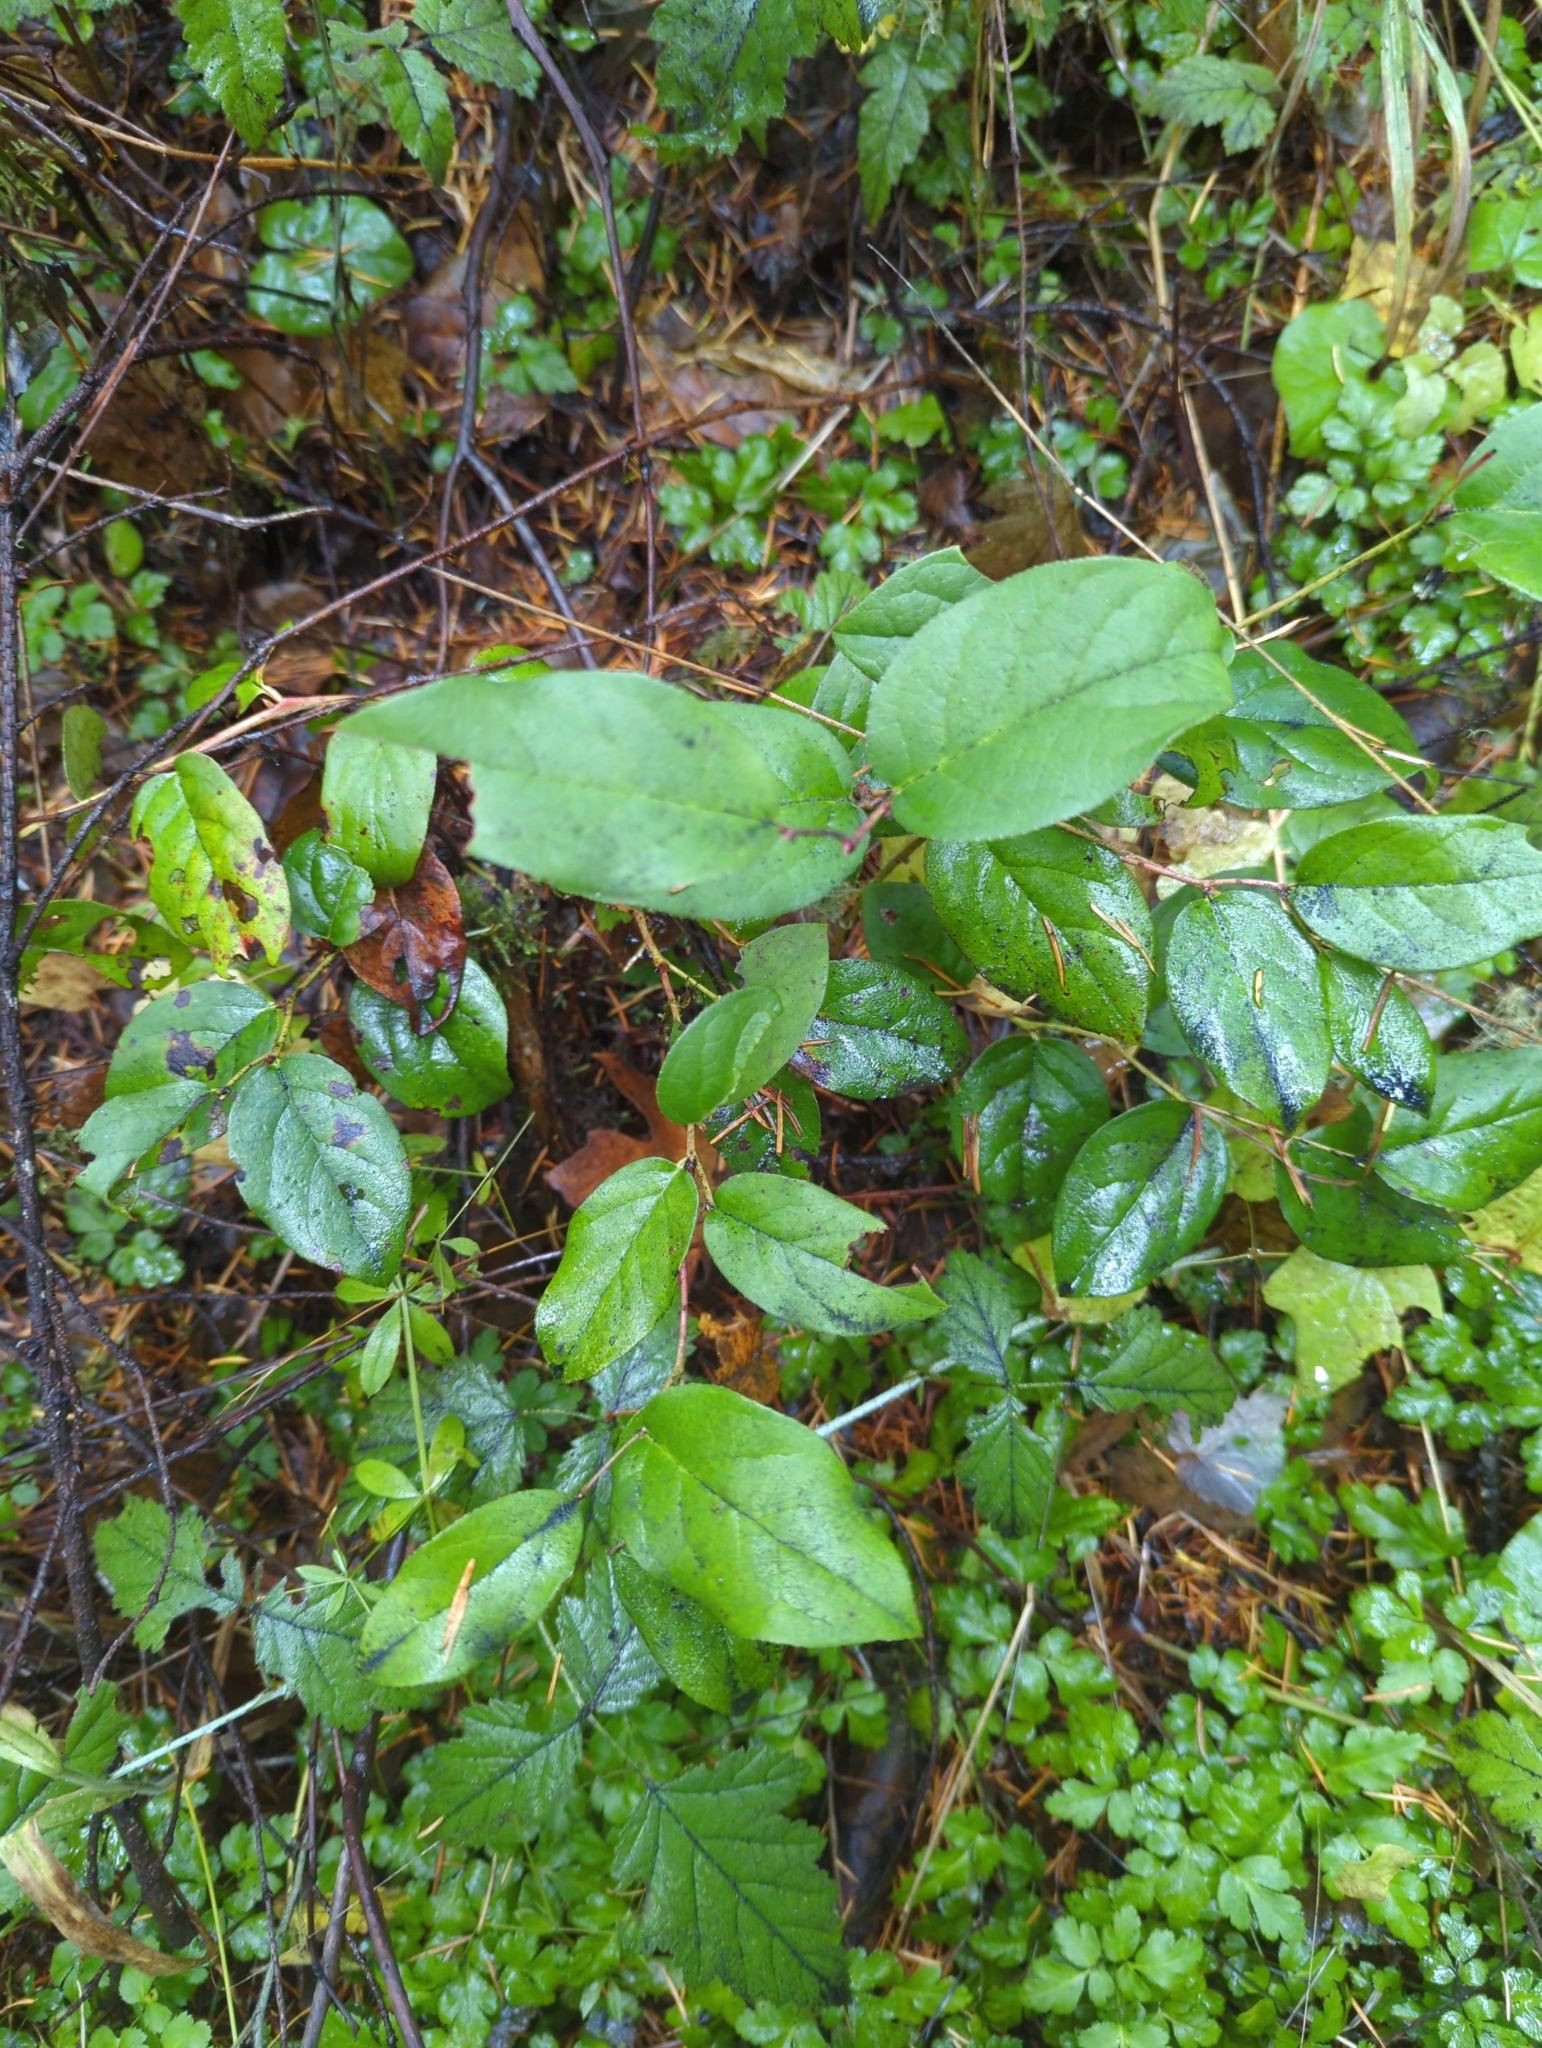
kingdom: Plantae
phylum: Tracheophyta
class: Magnoliopsida
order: Ericales
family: Ericaceae
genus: Gaultheria
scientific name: Gaultheria shallon
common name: Shallon
